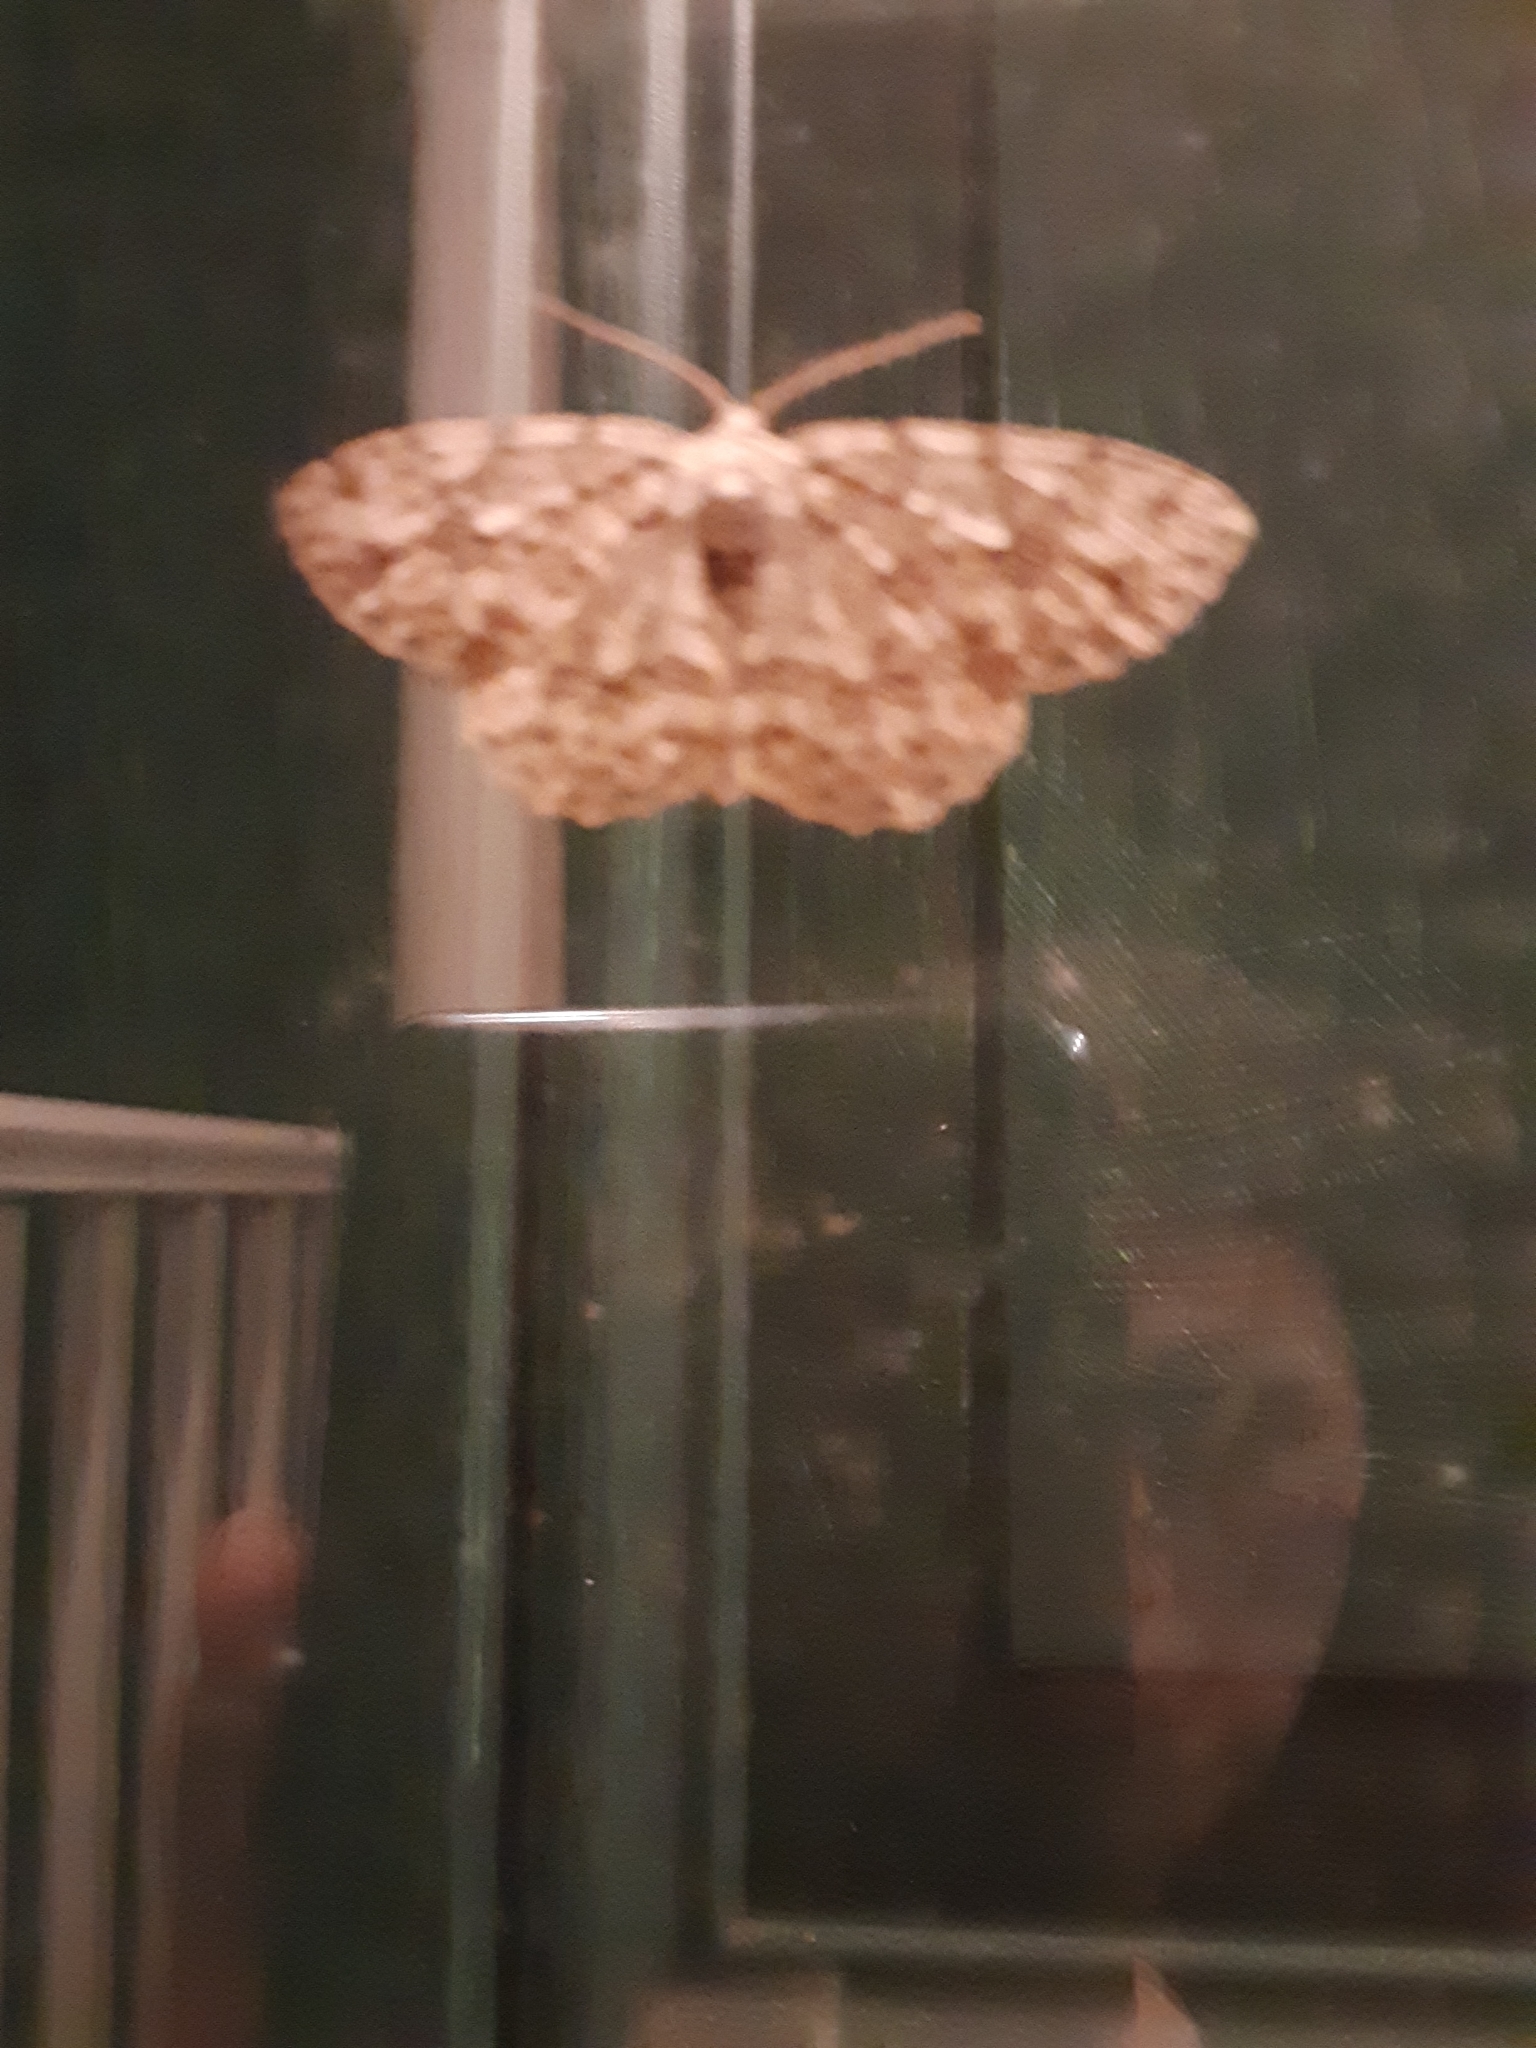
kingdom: Animalia
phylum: Arthropoda
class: Insecta
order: Lepidoptera
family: Geometridae
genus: Ectropis
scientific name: Ectropis crepuscularia
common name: Engrailed
